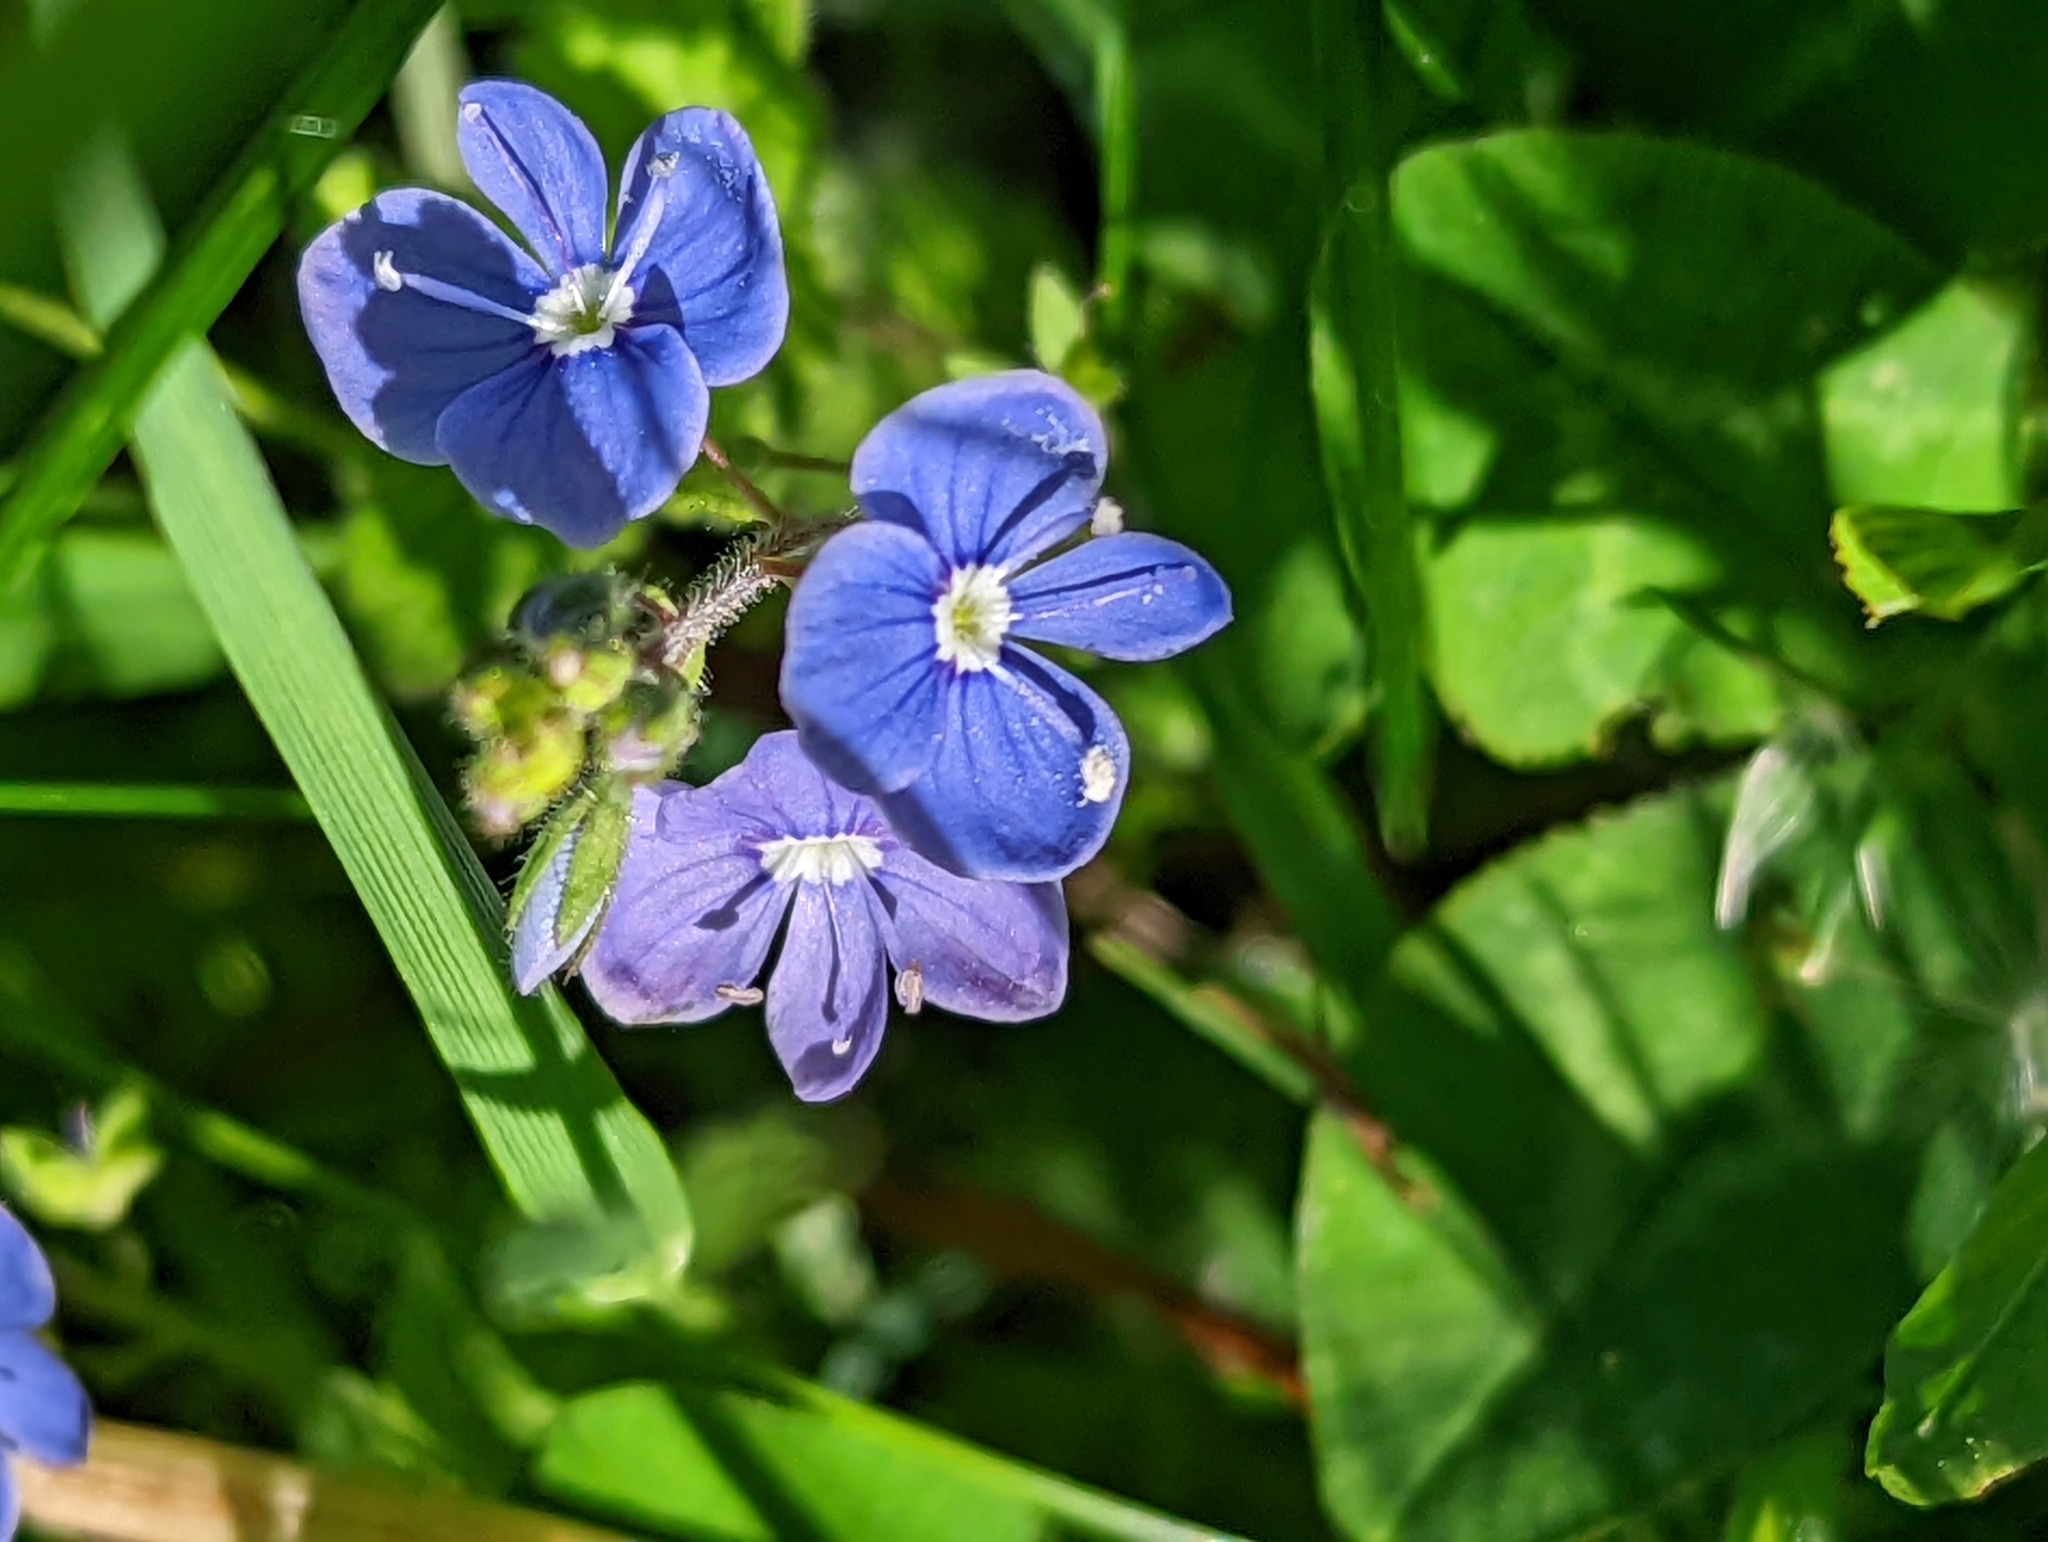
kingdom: Plantae
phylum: Tracheophyta
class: Magnoliopsida
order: Lamiales
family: Plantaginaceae
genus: Veronica
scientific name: Veronica chamaedrys
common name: Germander speedwell
